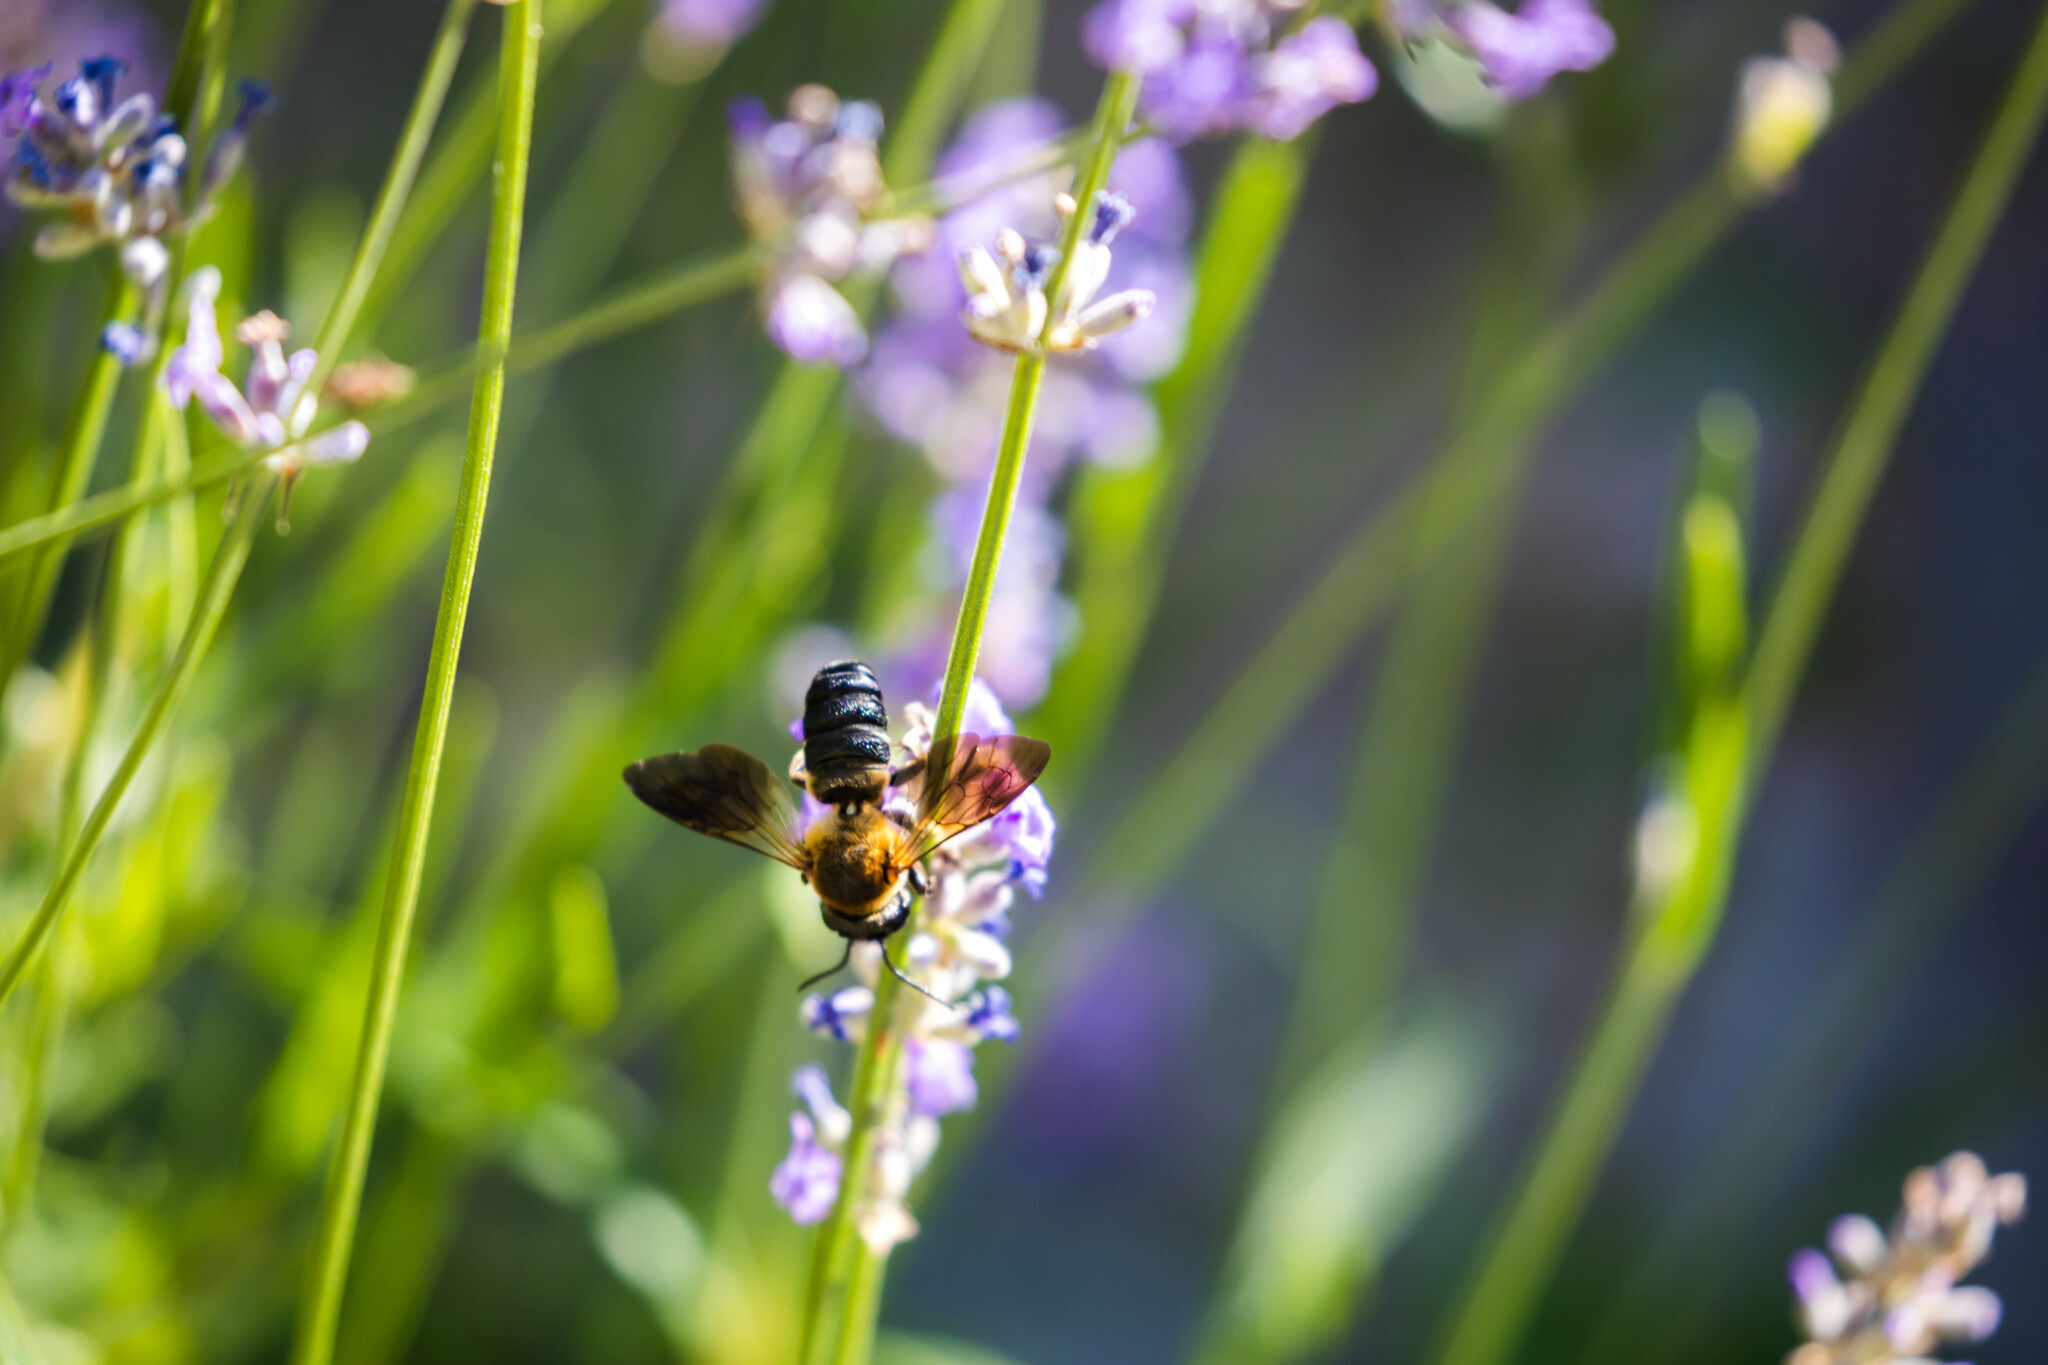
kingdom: Animalia
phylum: Arthropoda
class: Insecta
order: Hymenoptera
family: Megachilidae
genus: Megachile
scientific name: Megachile sculpturalis
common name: Sculptured resin bee
